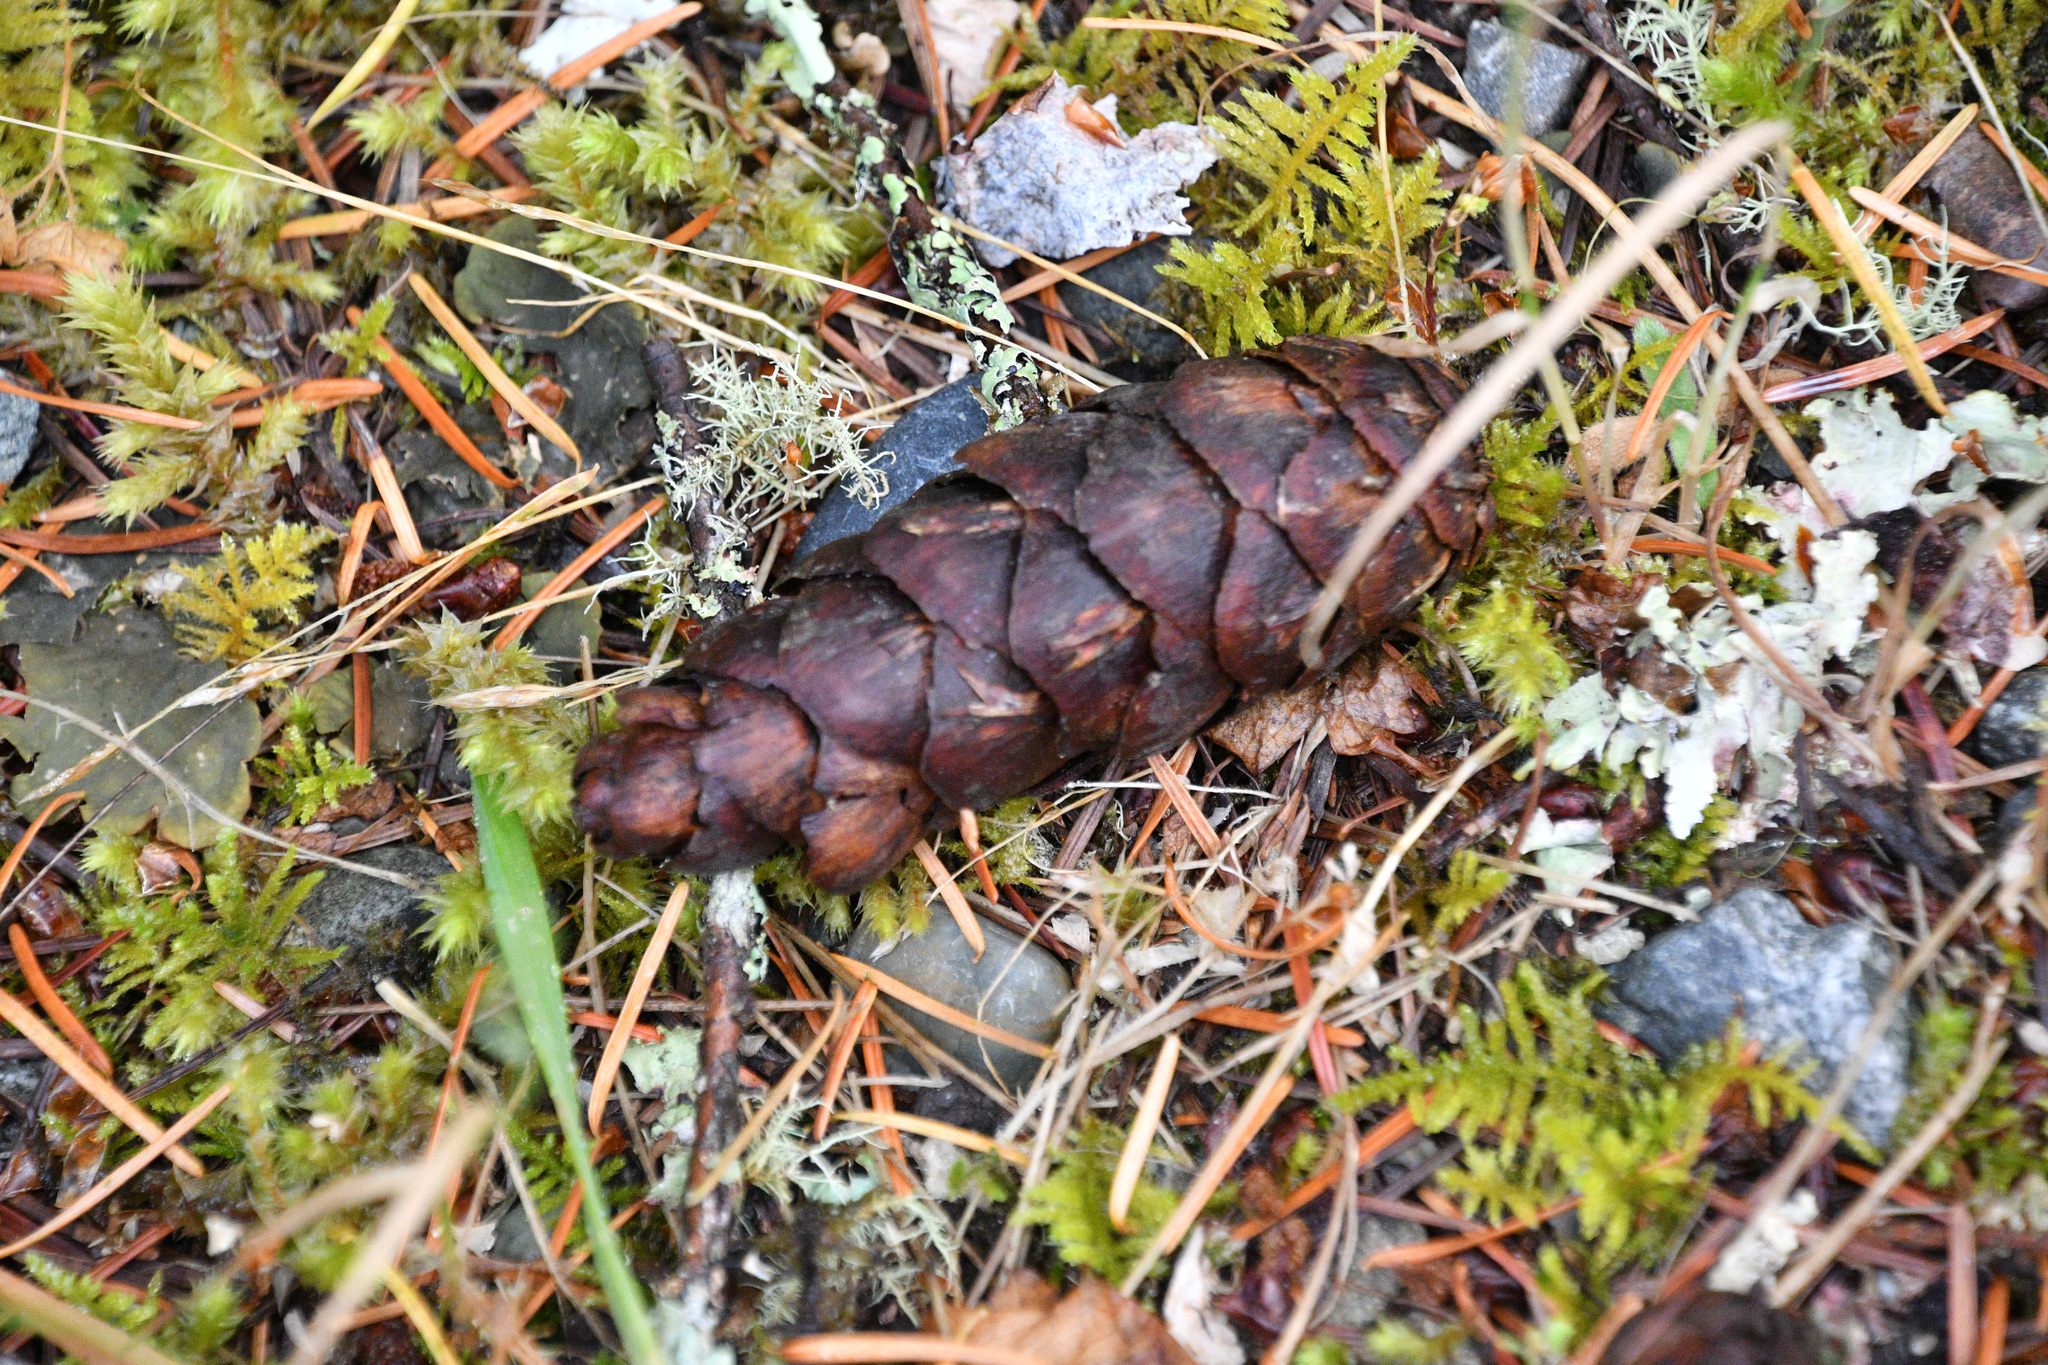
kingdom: Plantae
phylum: Tracheophyta
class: Pinopsida
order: Pinales
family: Pinaceae
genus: Pseudotsuga
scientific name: Pseudotsuga menziesii
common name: Douglas fir
